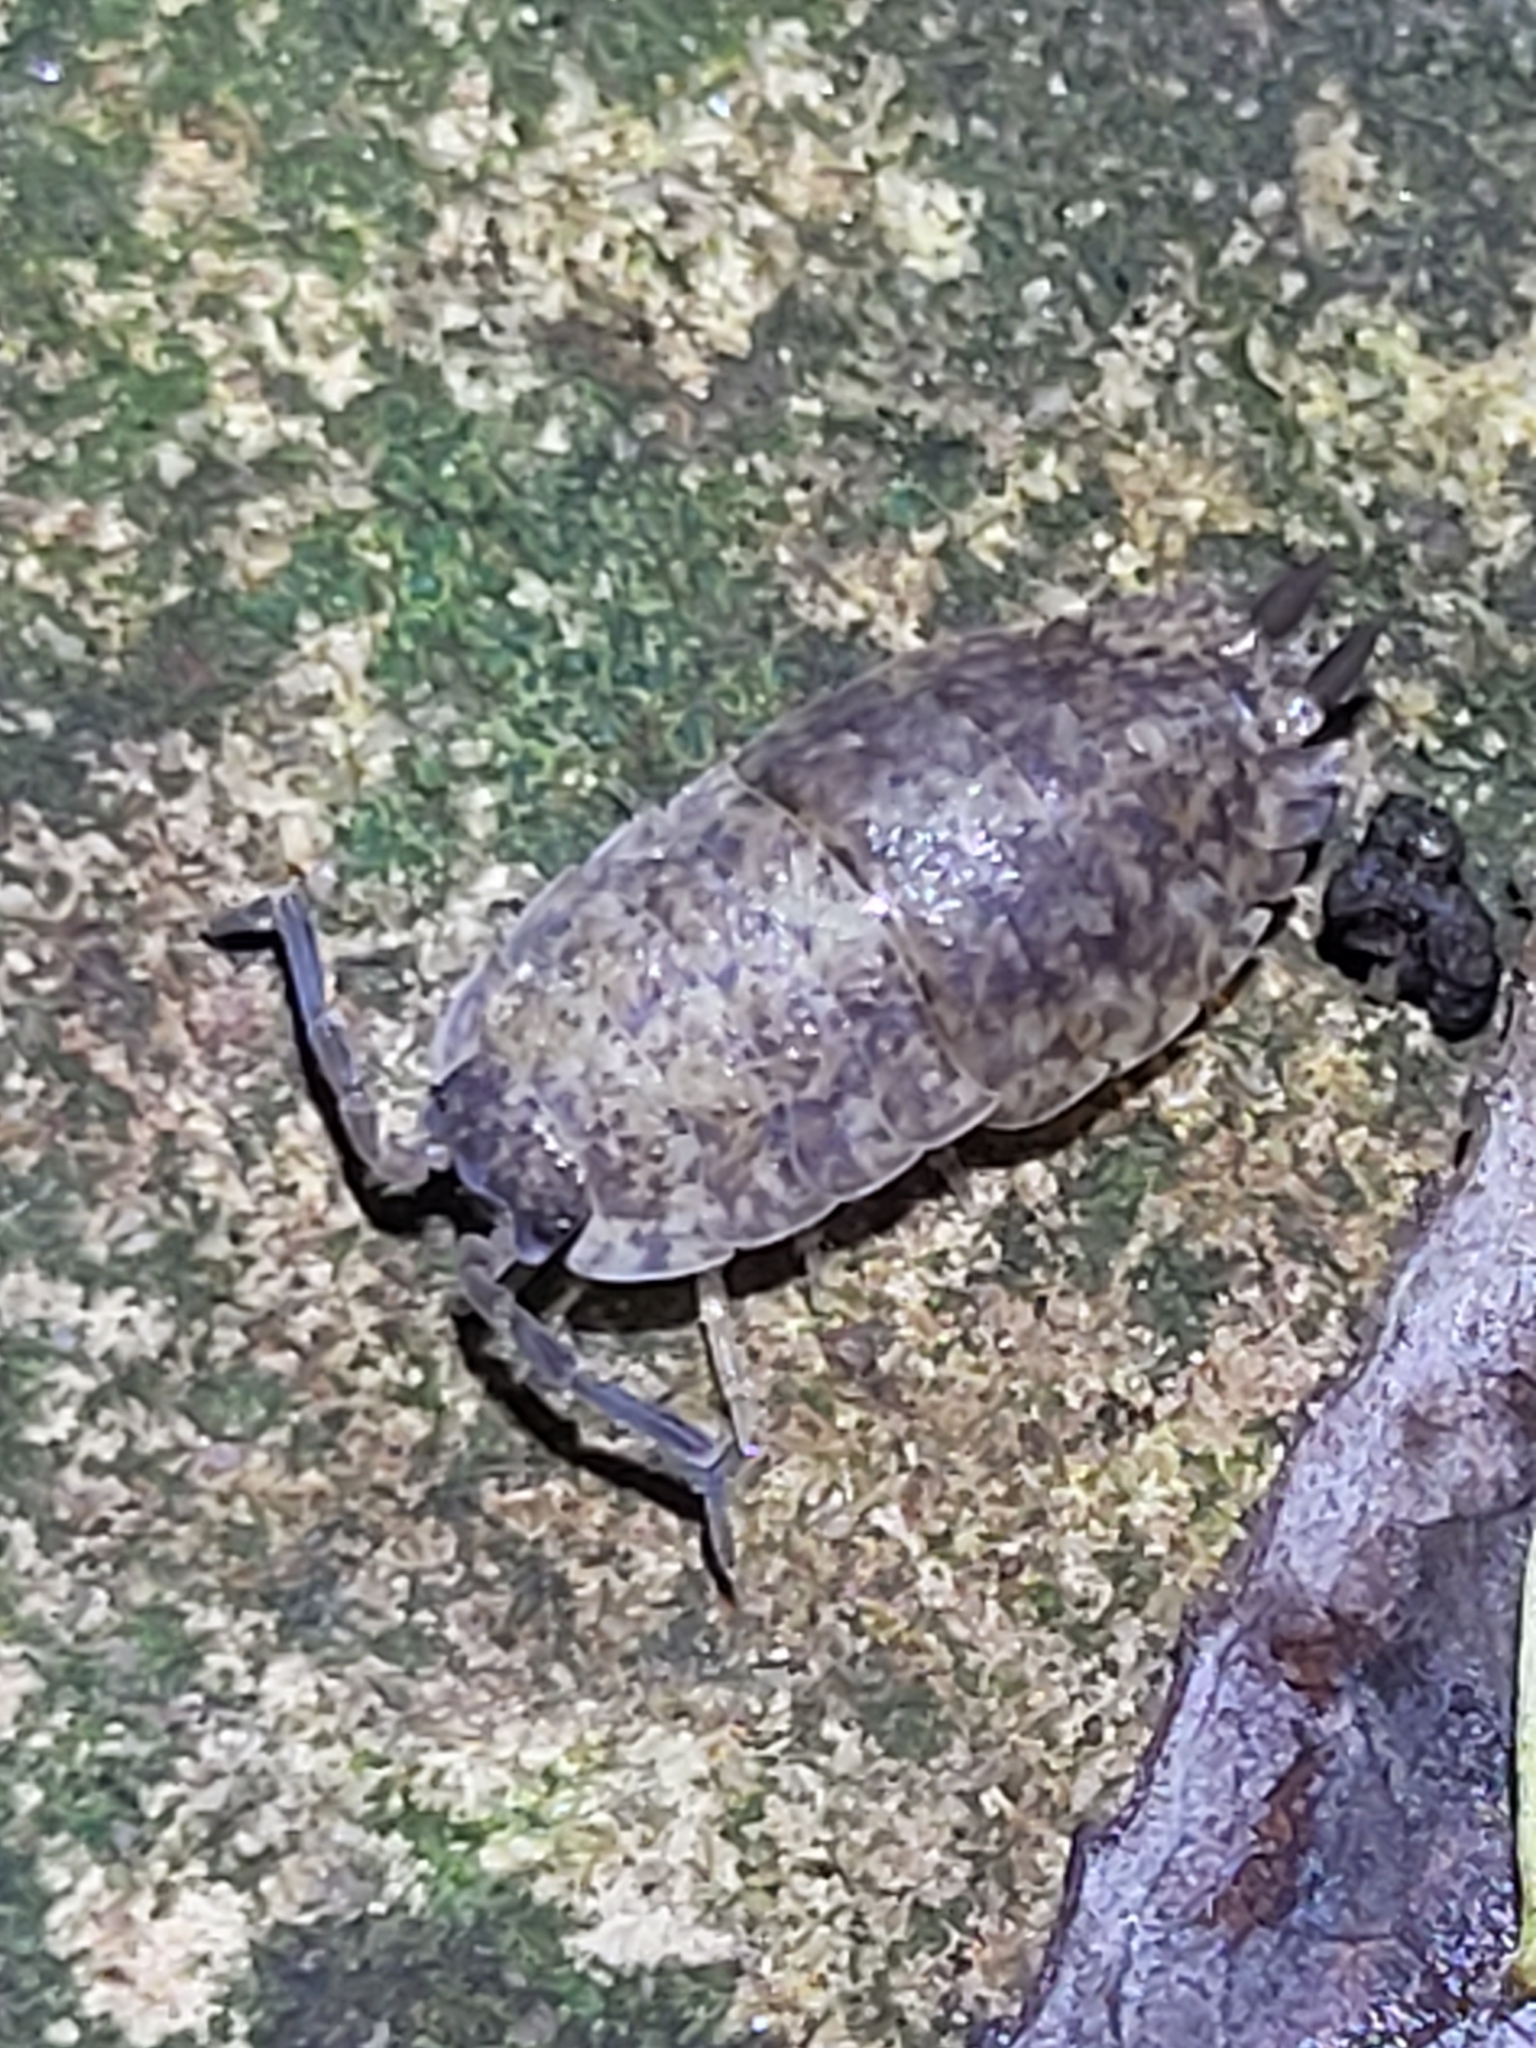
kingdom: Animalia
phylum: Arthropoda
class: Malacostraca
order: Isopoda
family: Porcellionidae
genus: Porcellio
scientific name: Porcellio scaber
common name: Common rough woodlouse
